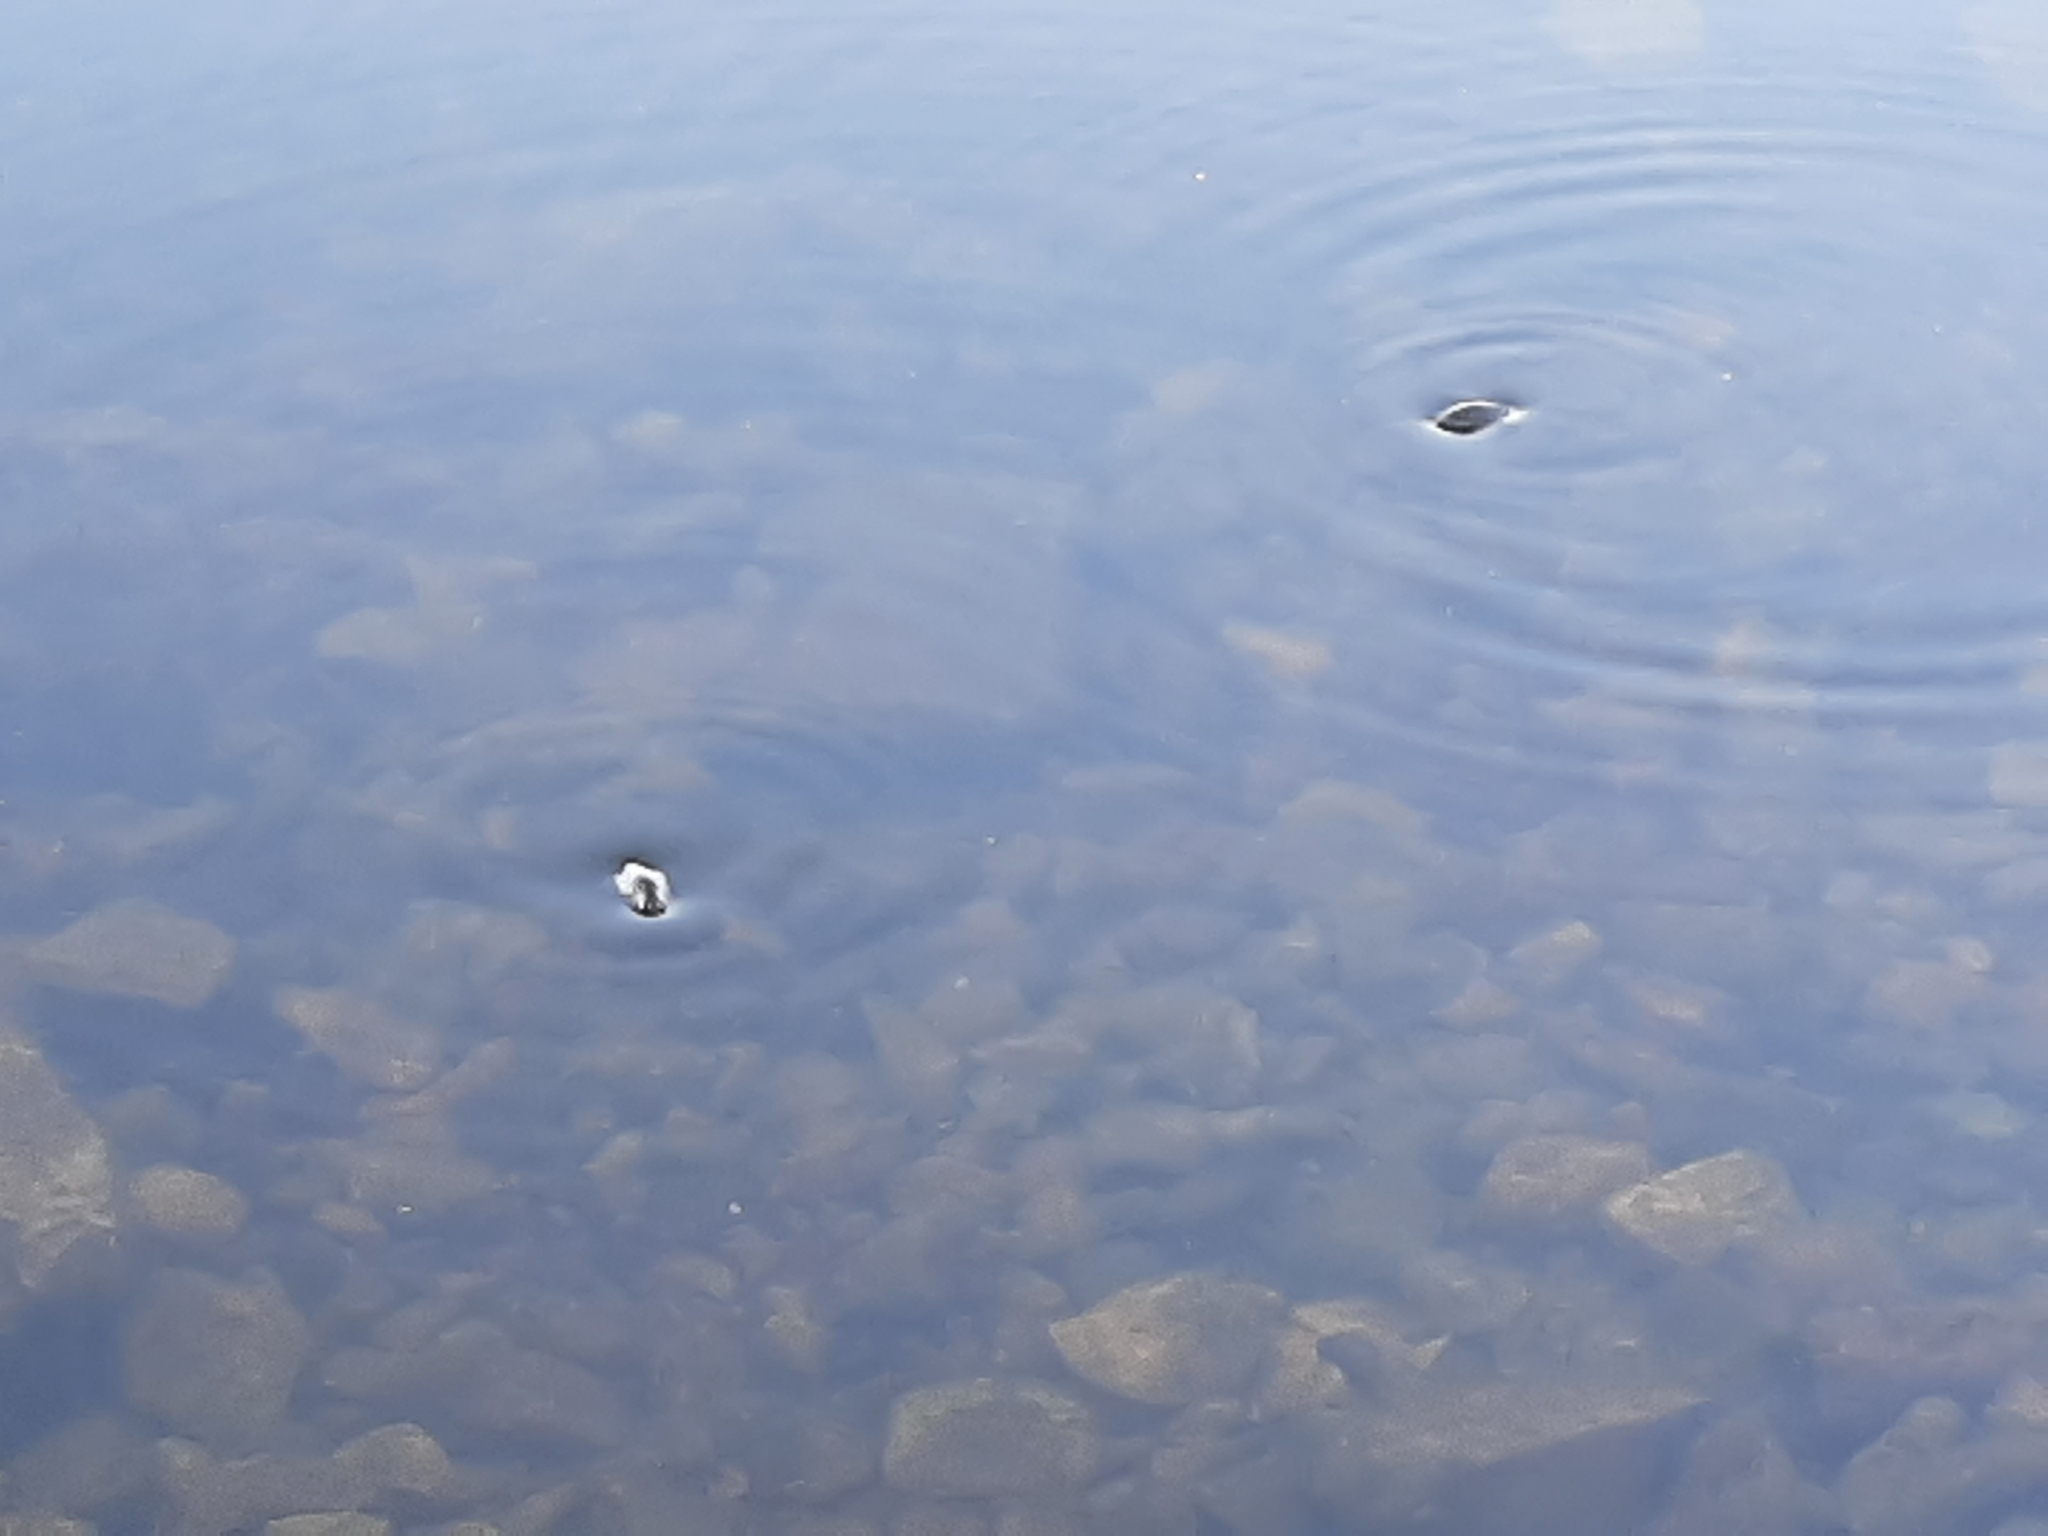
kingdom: Animalia
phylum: Arthropoda
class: Insecta
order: Coleoptera
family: Gyrinidae
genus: Dineutus
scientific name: Dineutus
